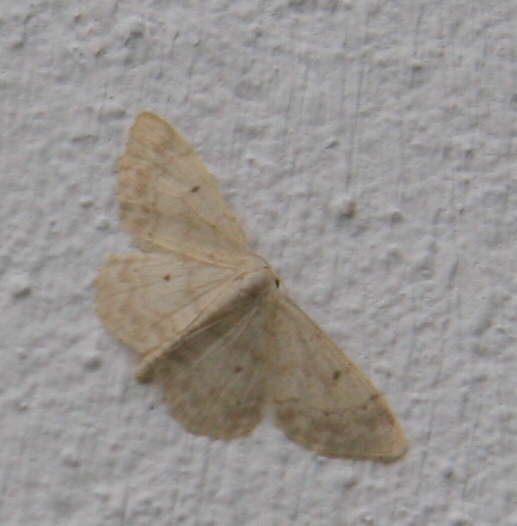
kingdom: Animalia
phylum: Arthropoda
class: Insecta
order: Lepidoptera
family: Geometridae
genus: Idaea
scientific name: Idaea biselata
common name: Small fan-footed wave
